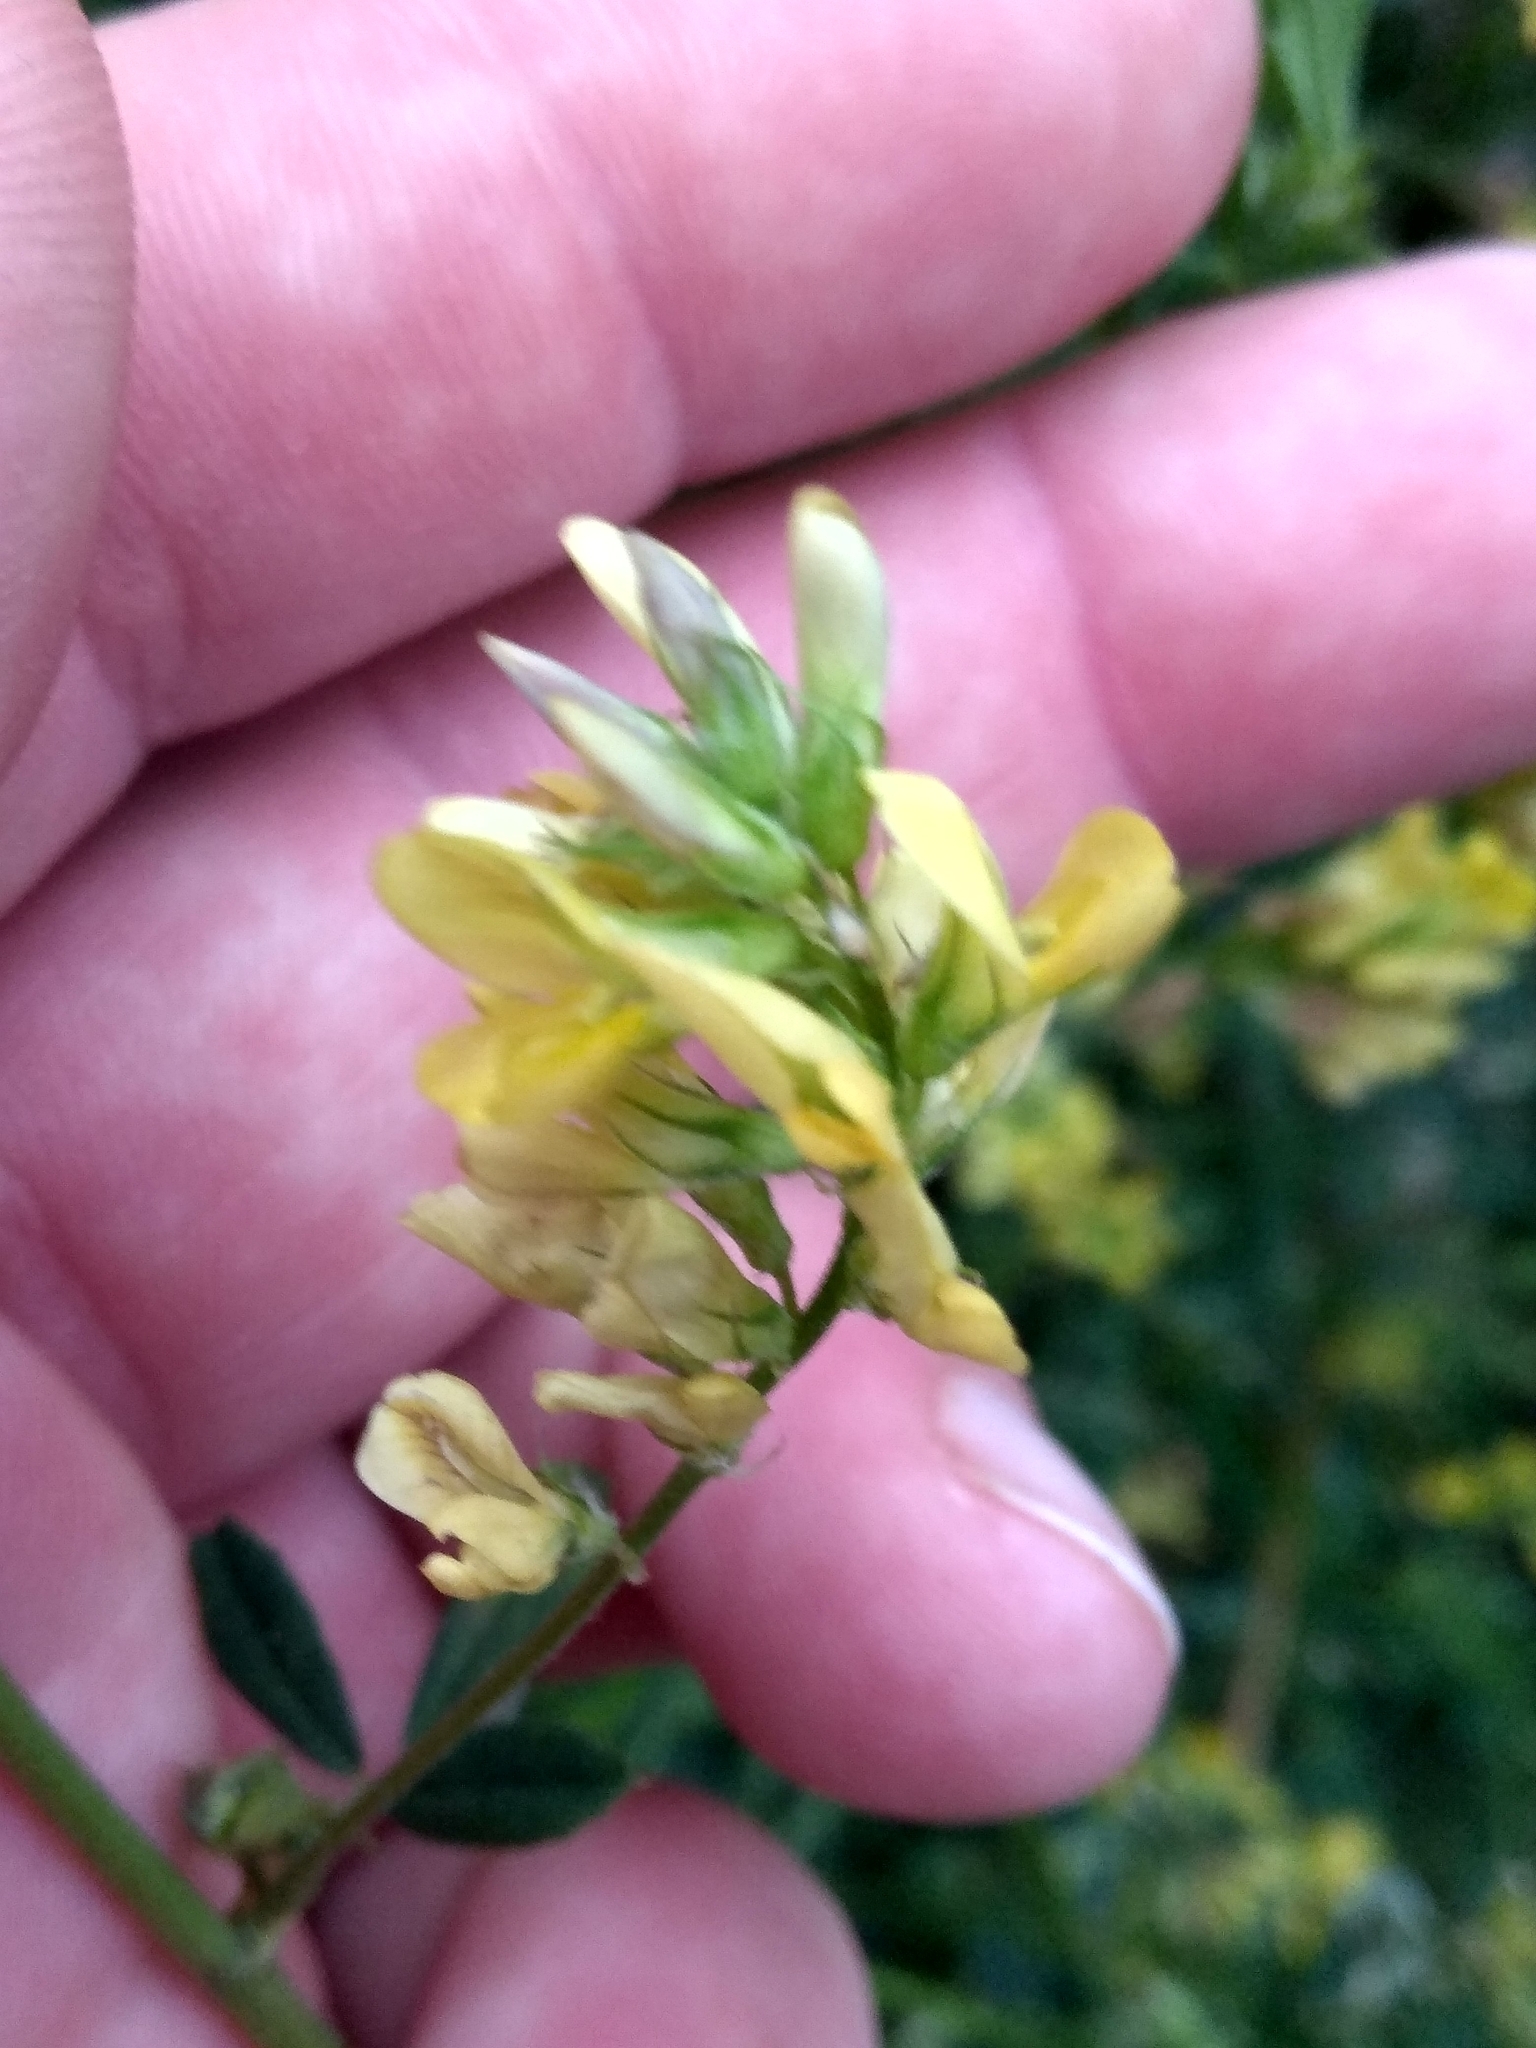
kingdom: Plantae
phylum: Tracheophyta
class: Magnoliopsida
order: Fabales
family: Fabaceae
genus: Medicago
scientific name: Medicago falcata
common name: Sickle medick
